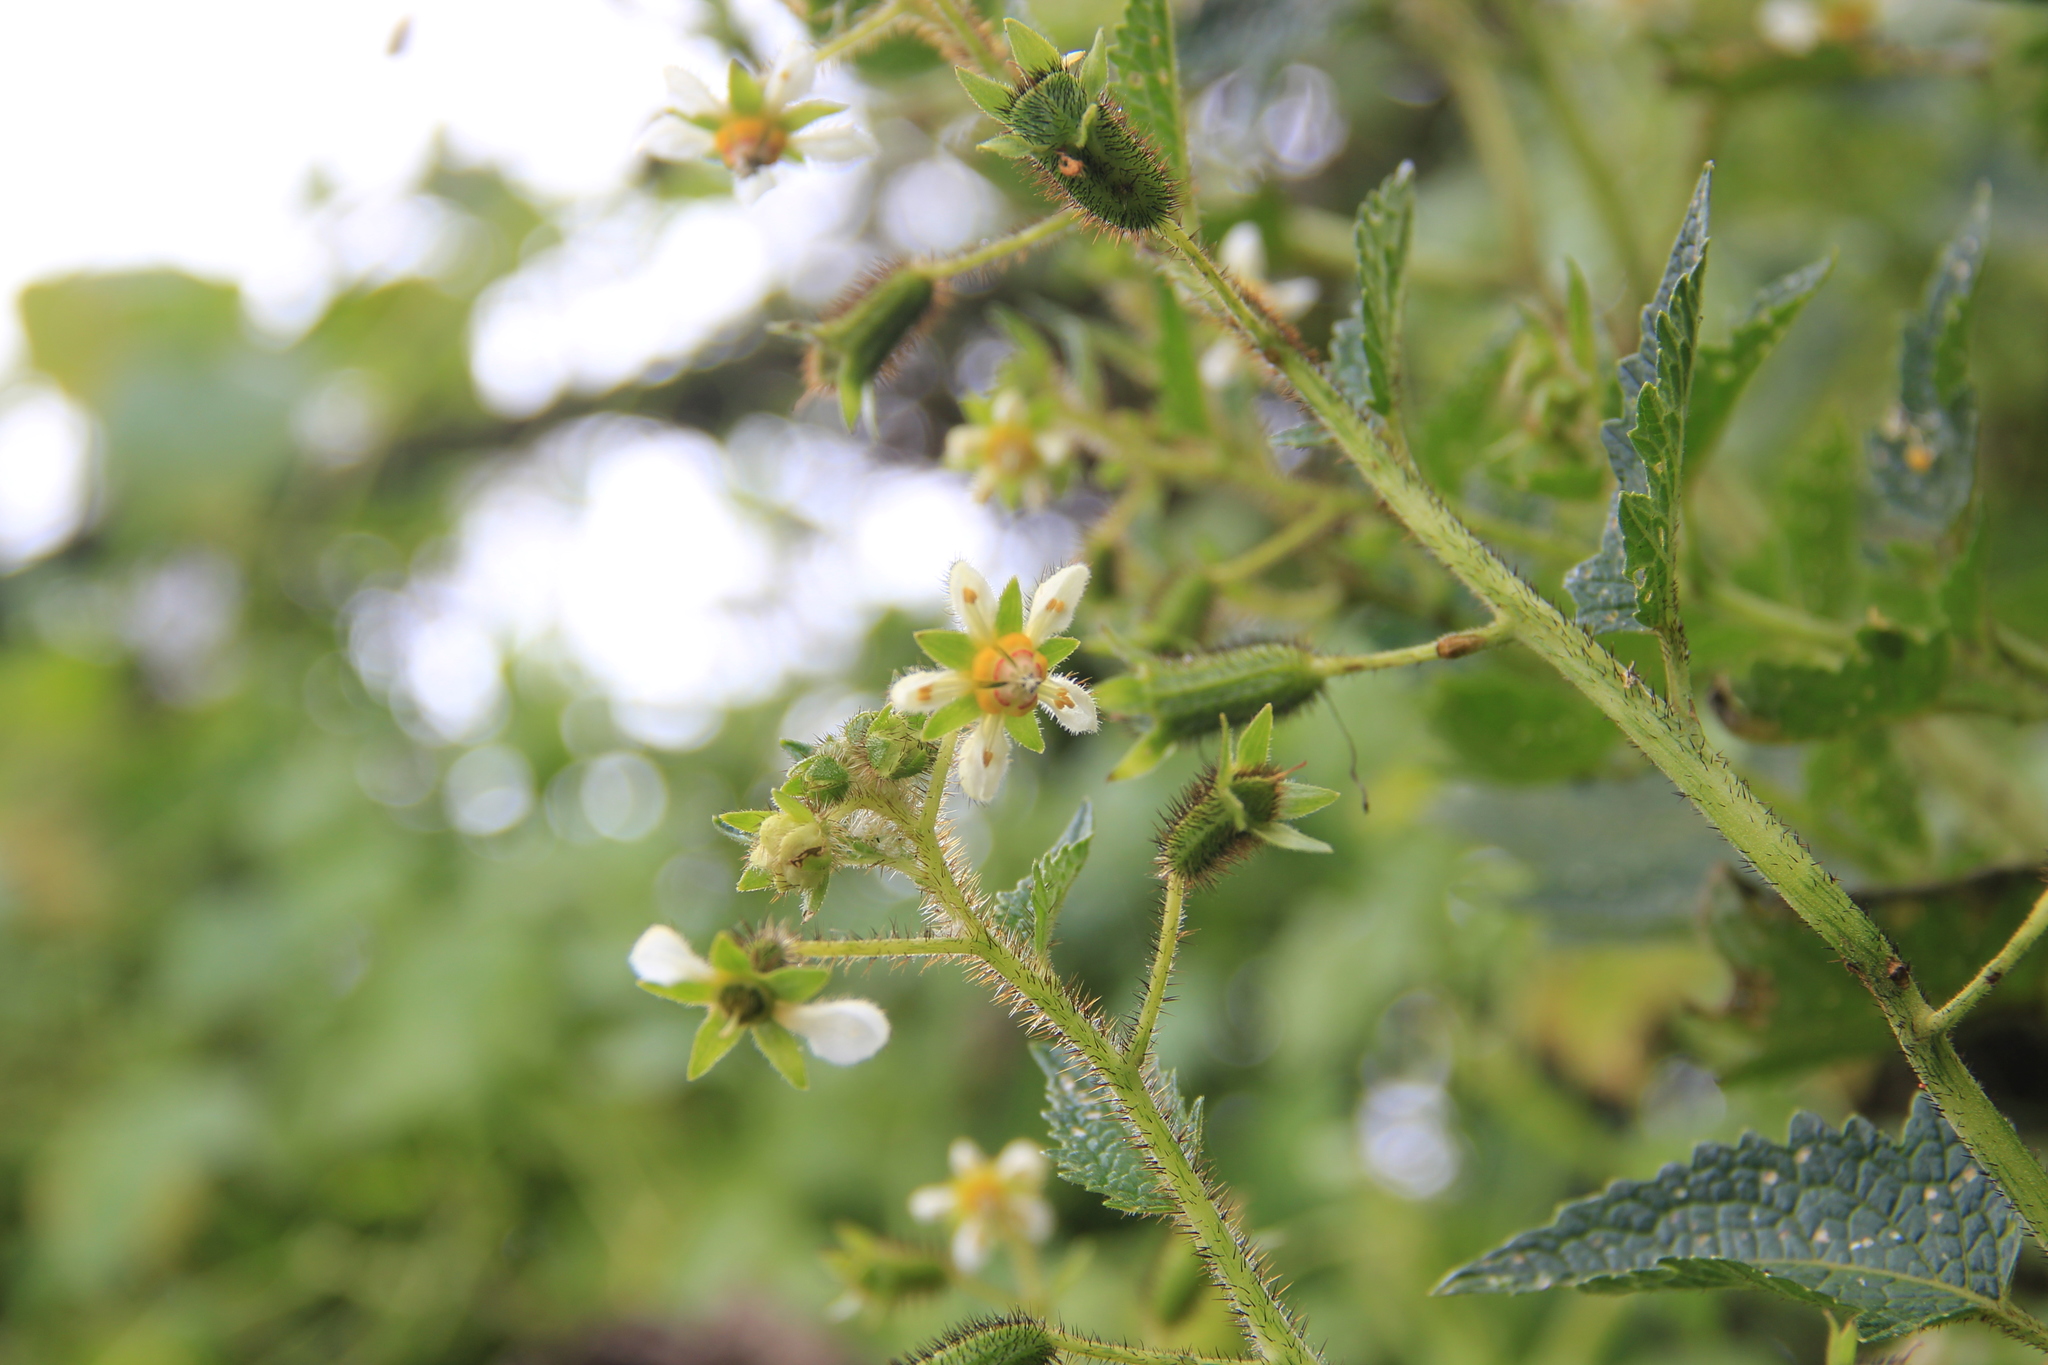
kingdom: Plantae
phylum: Tracheophyta
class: Magnoliopsida
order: Cornales
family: Loasaceae
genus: Nasa
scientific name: Nasa ferruginea
